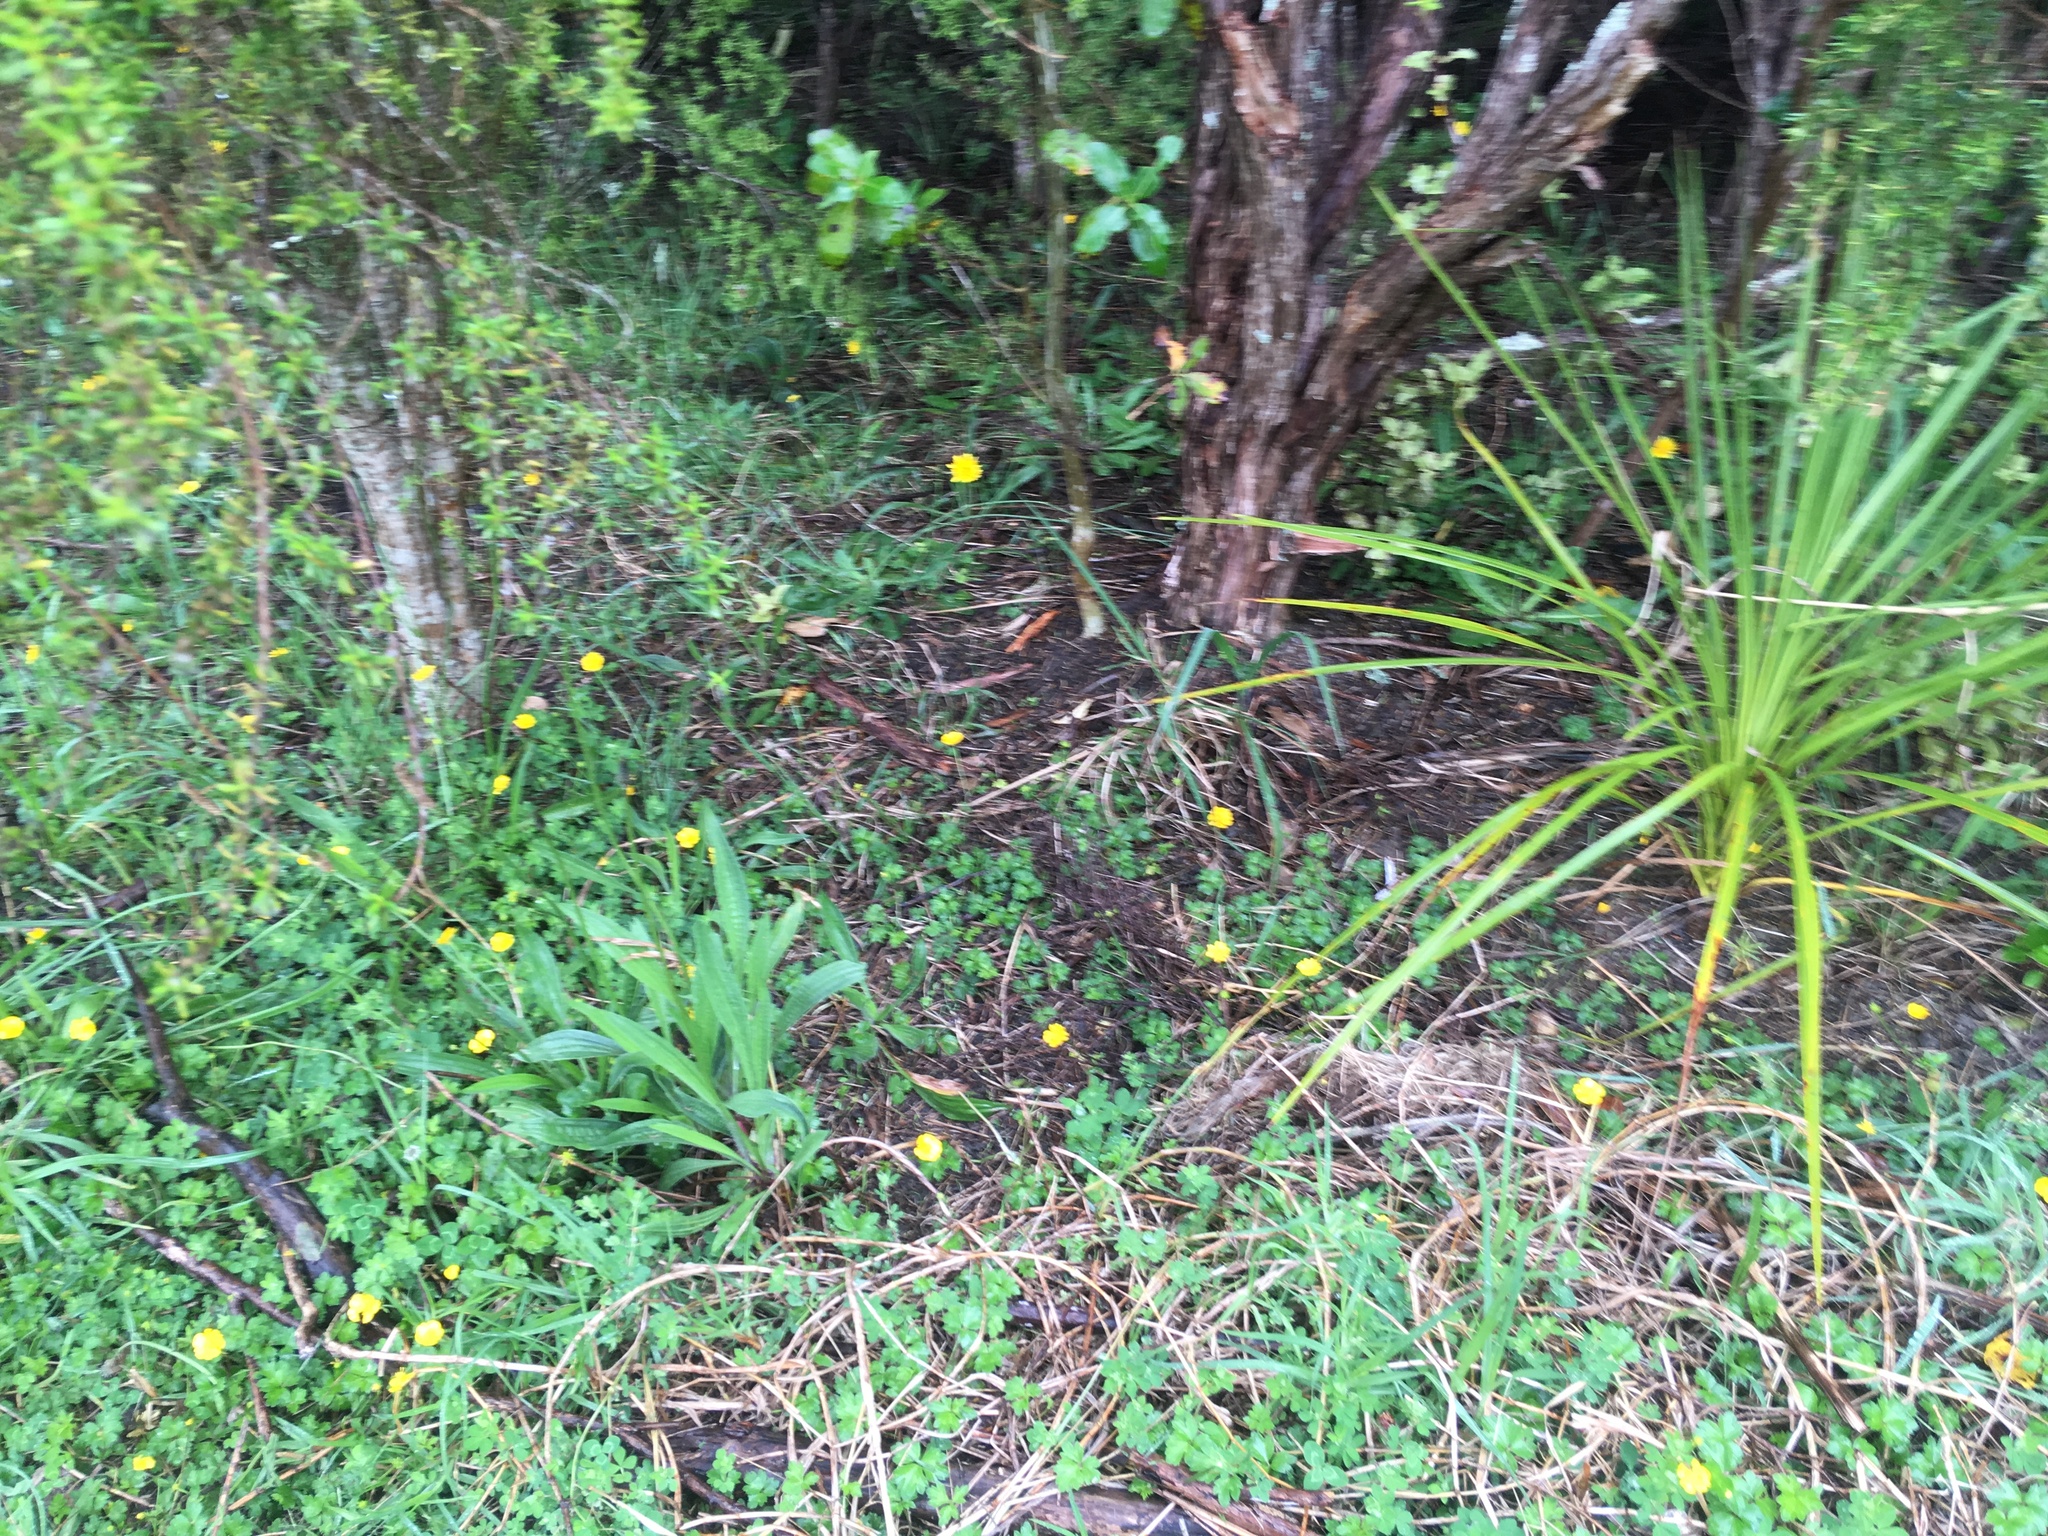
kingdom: Plantae
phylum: Tracheophyta
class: Liliopsida
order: Poales
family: Poaceae
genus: Cenchrus
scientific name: Cenchrus clandestinus
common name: Kikuyugrass
